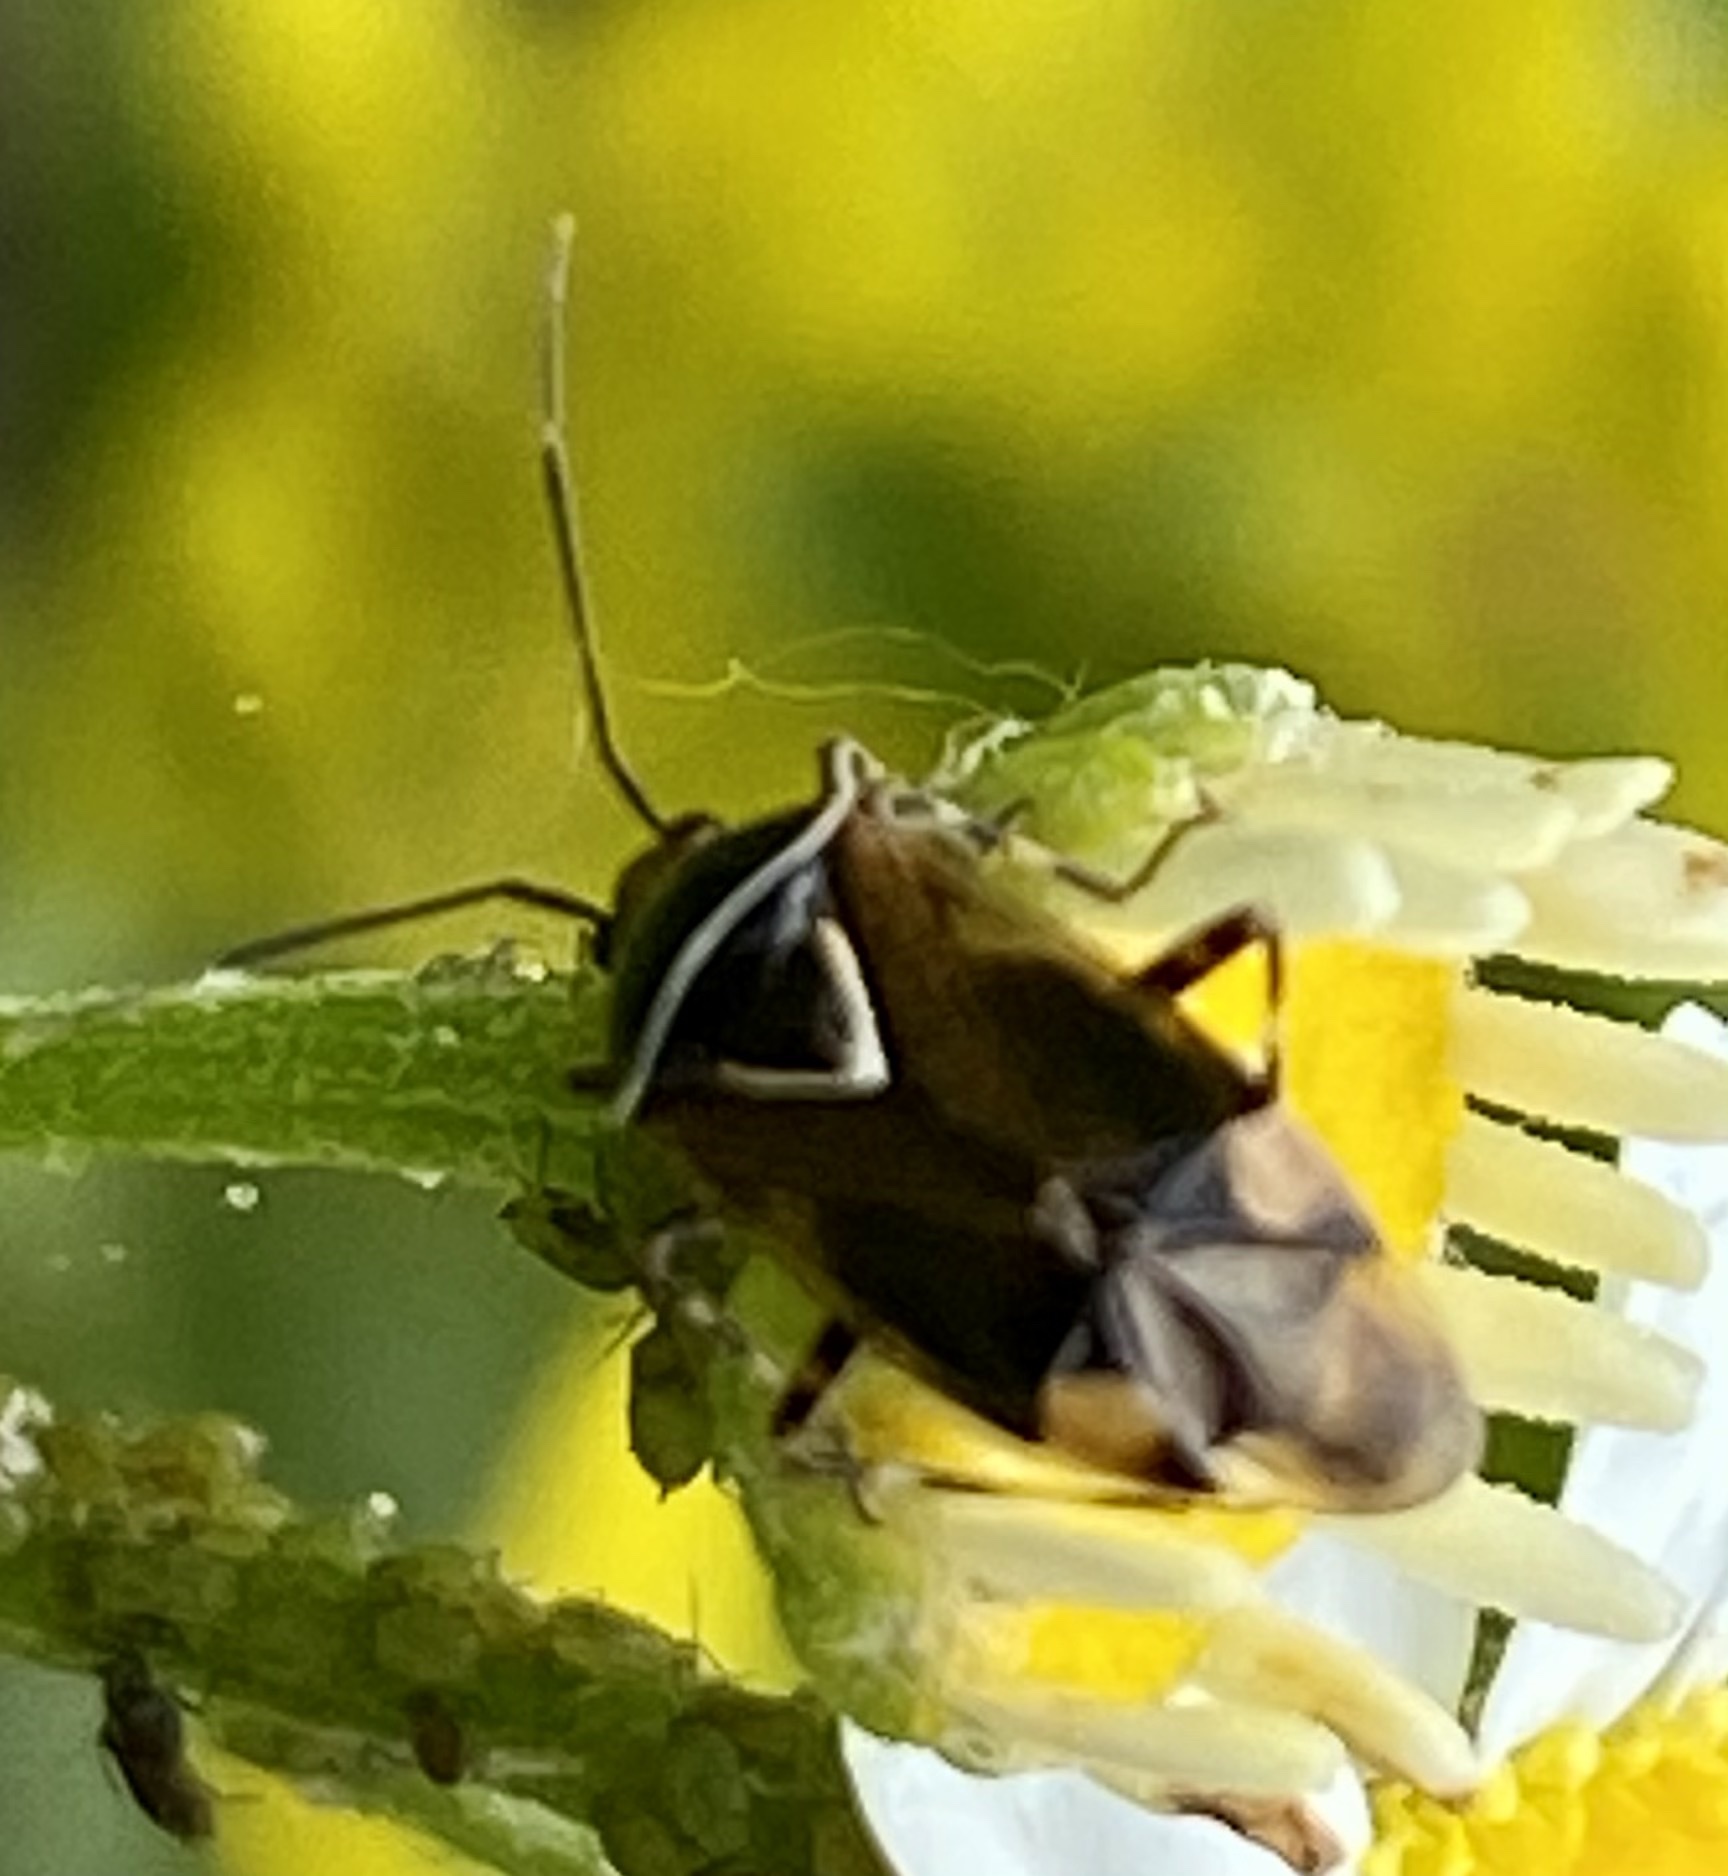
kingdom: Animalia
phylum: Arthropoda
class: Insecta
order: Hemiptera
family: Miridae
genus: Deraeocoris
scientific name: Deraeocoris flavilinea
